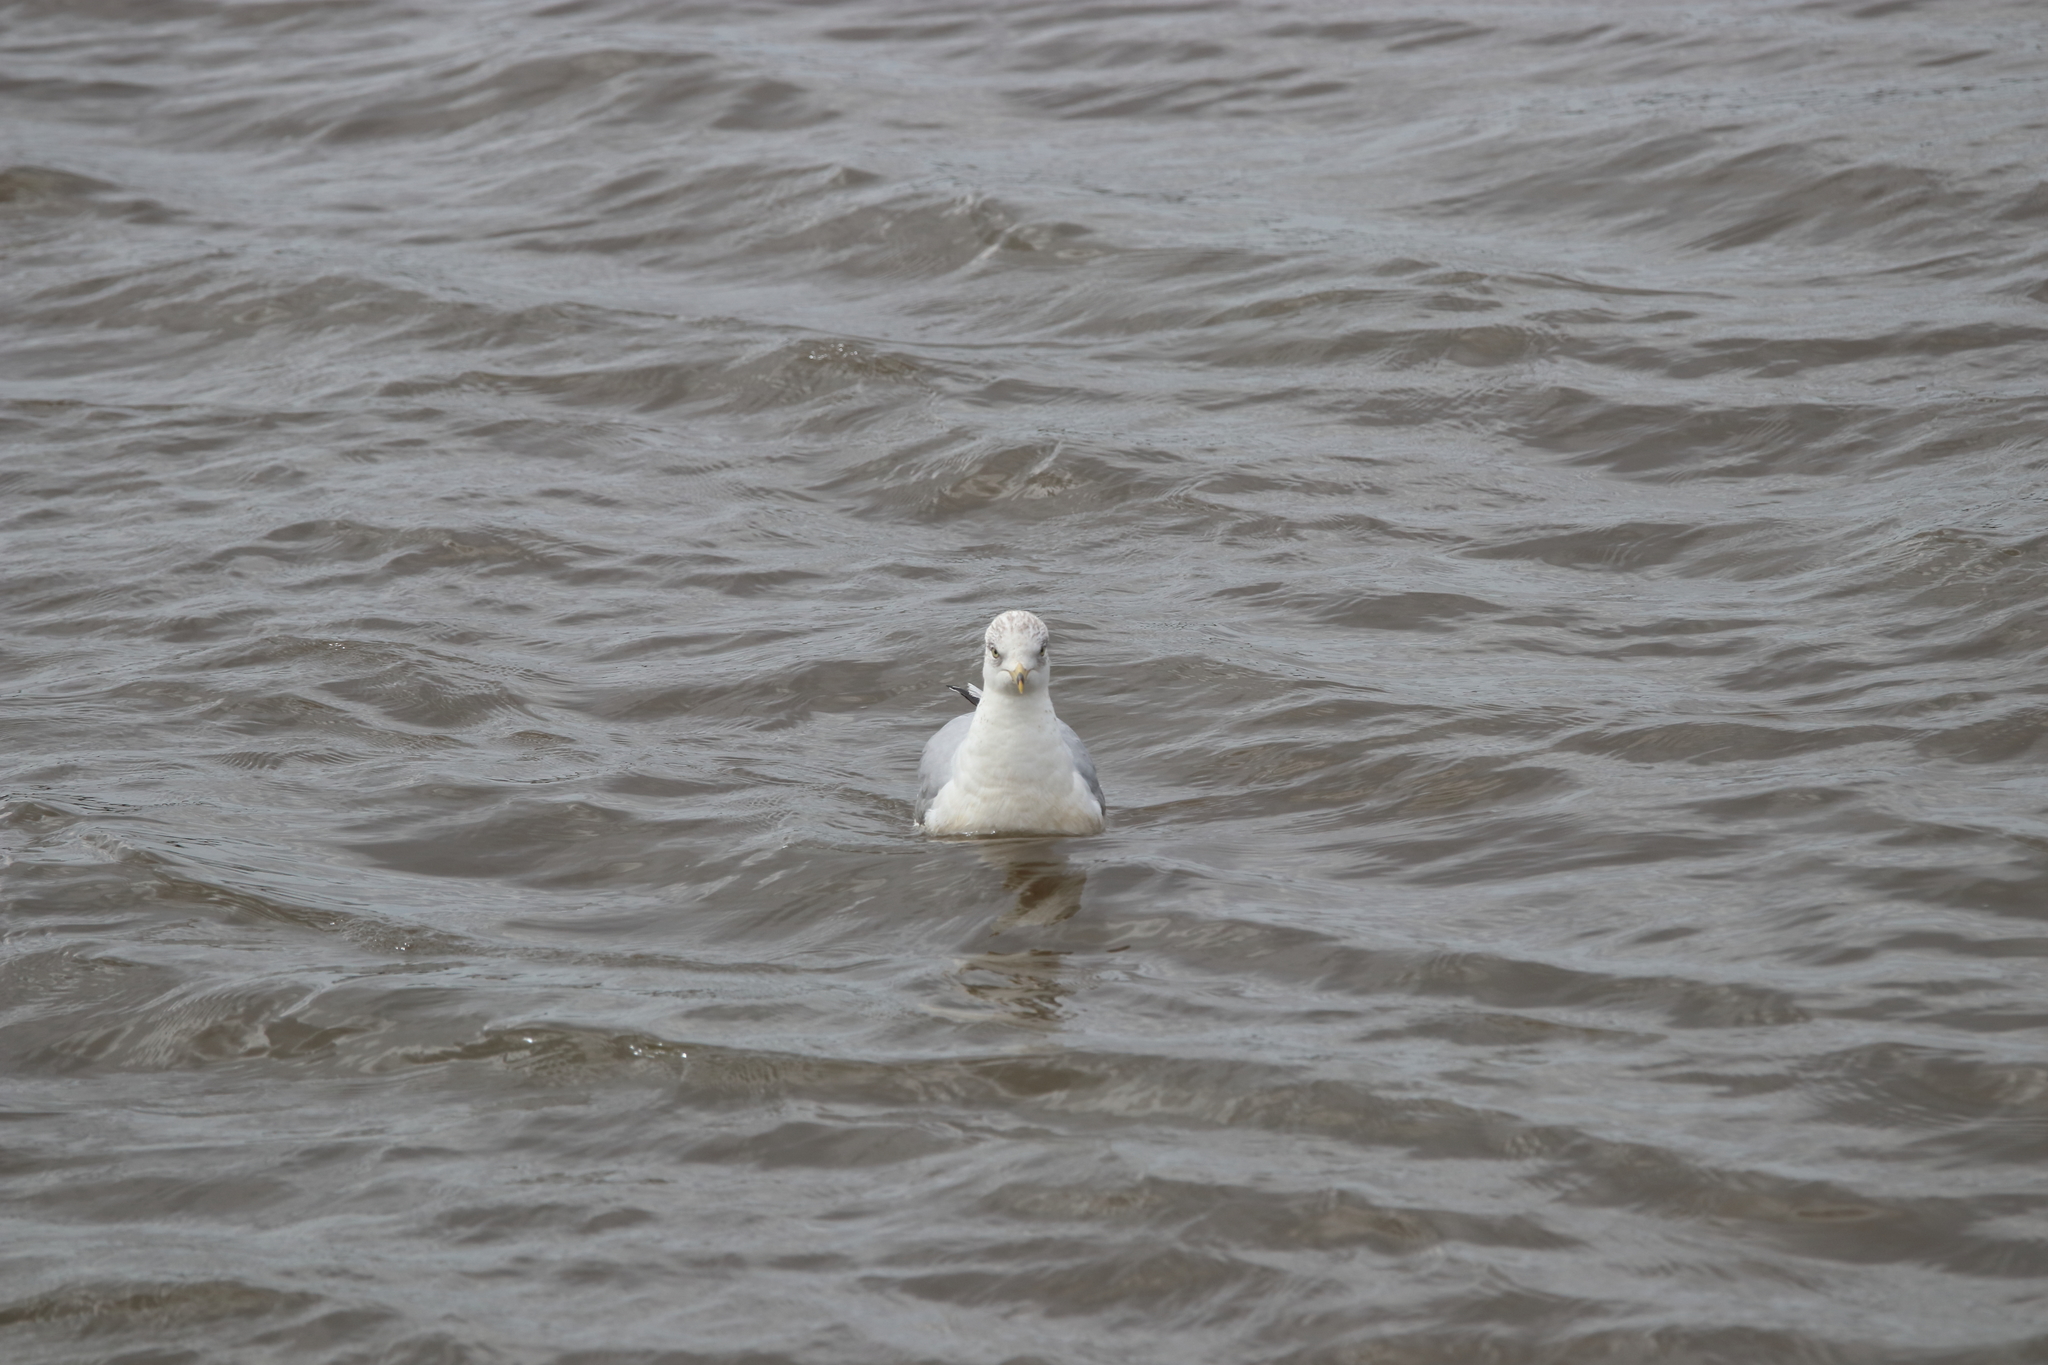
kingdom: Animalia
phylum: Chordata
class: Aves
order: Charadriiformes
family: Laridae
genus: Larus
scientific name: Larus delawarensis
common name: Ring-billed gull
